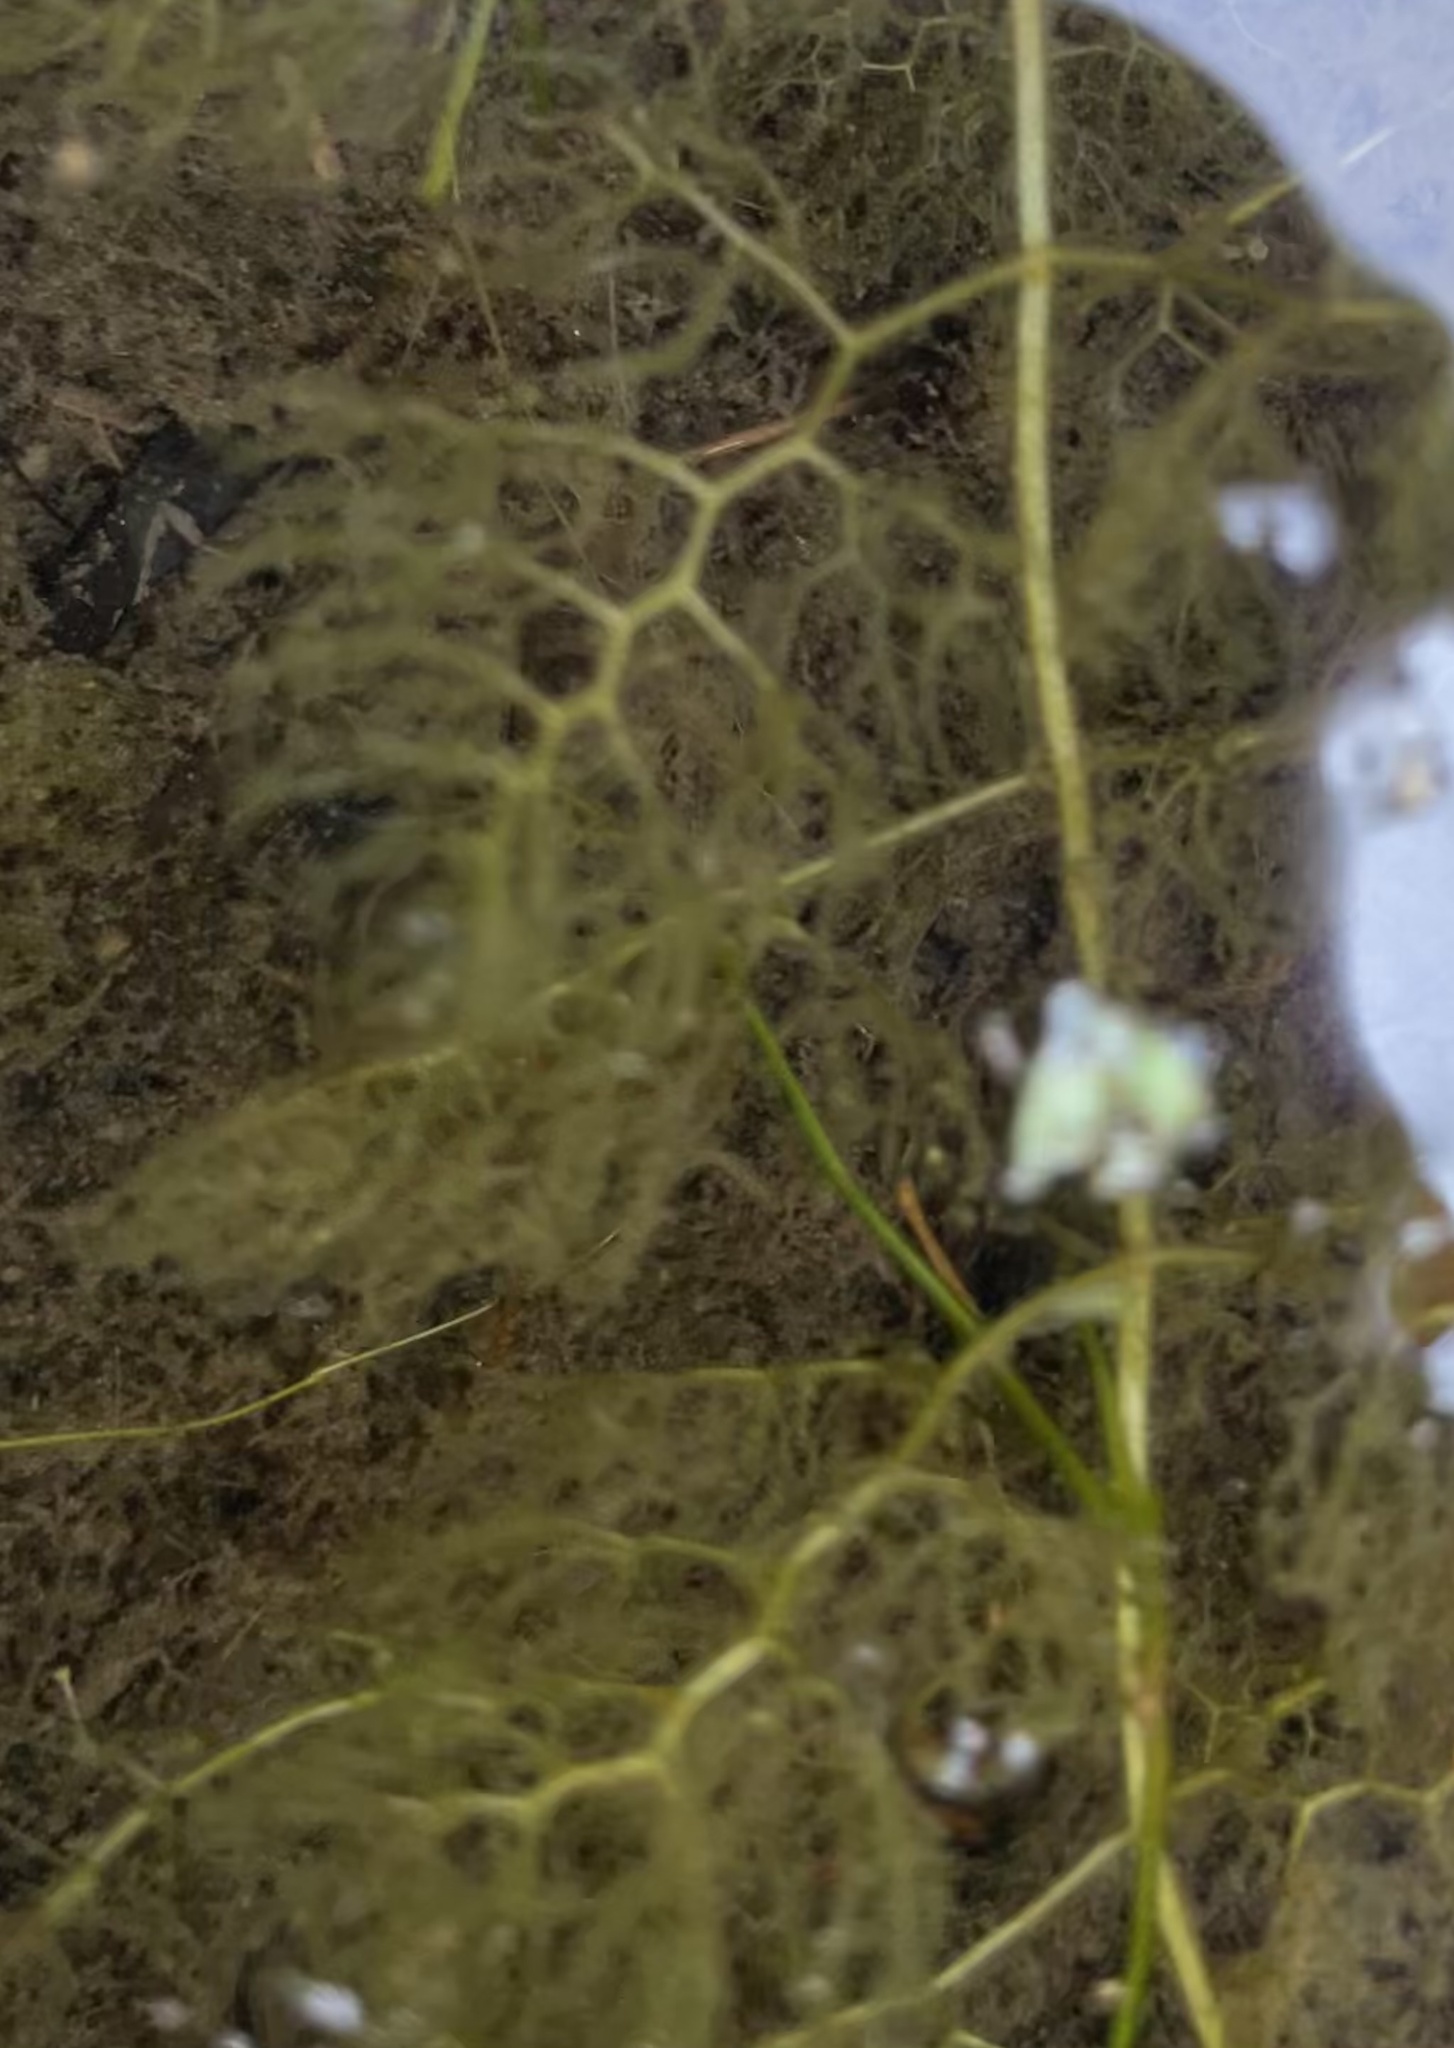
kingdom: Plantae
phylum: Tracheophyta
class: Magnoliopsida
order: Lamiales
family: Lentibulariaceae
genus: Utricularia
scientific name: Utricularia inflata
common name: Floating bladderwort
